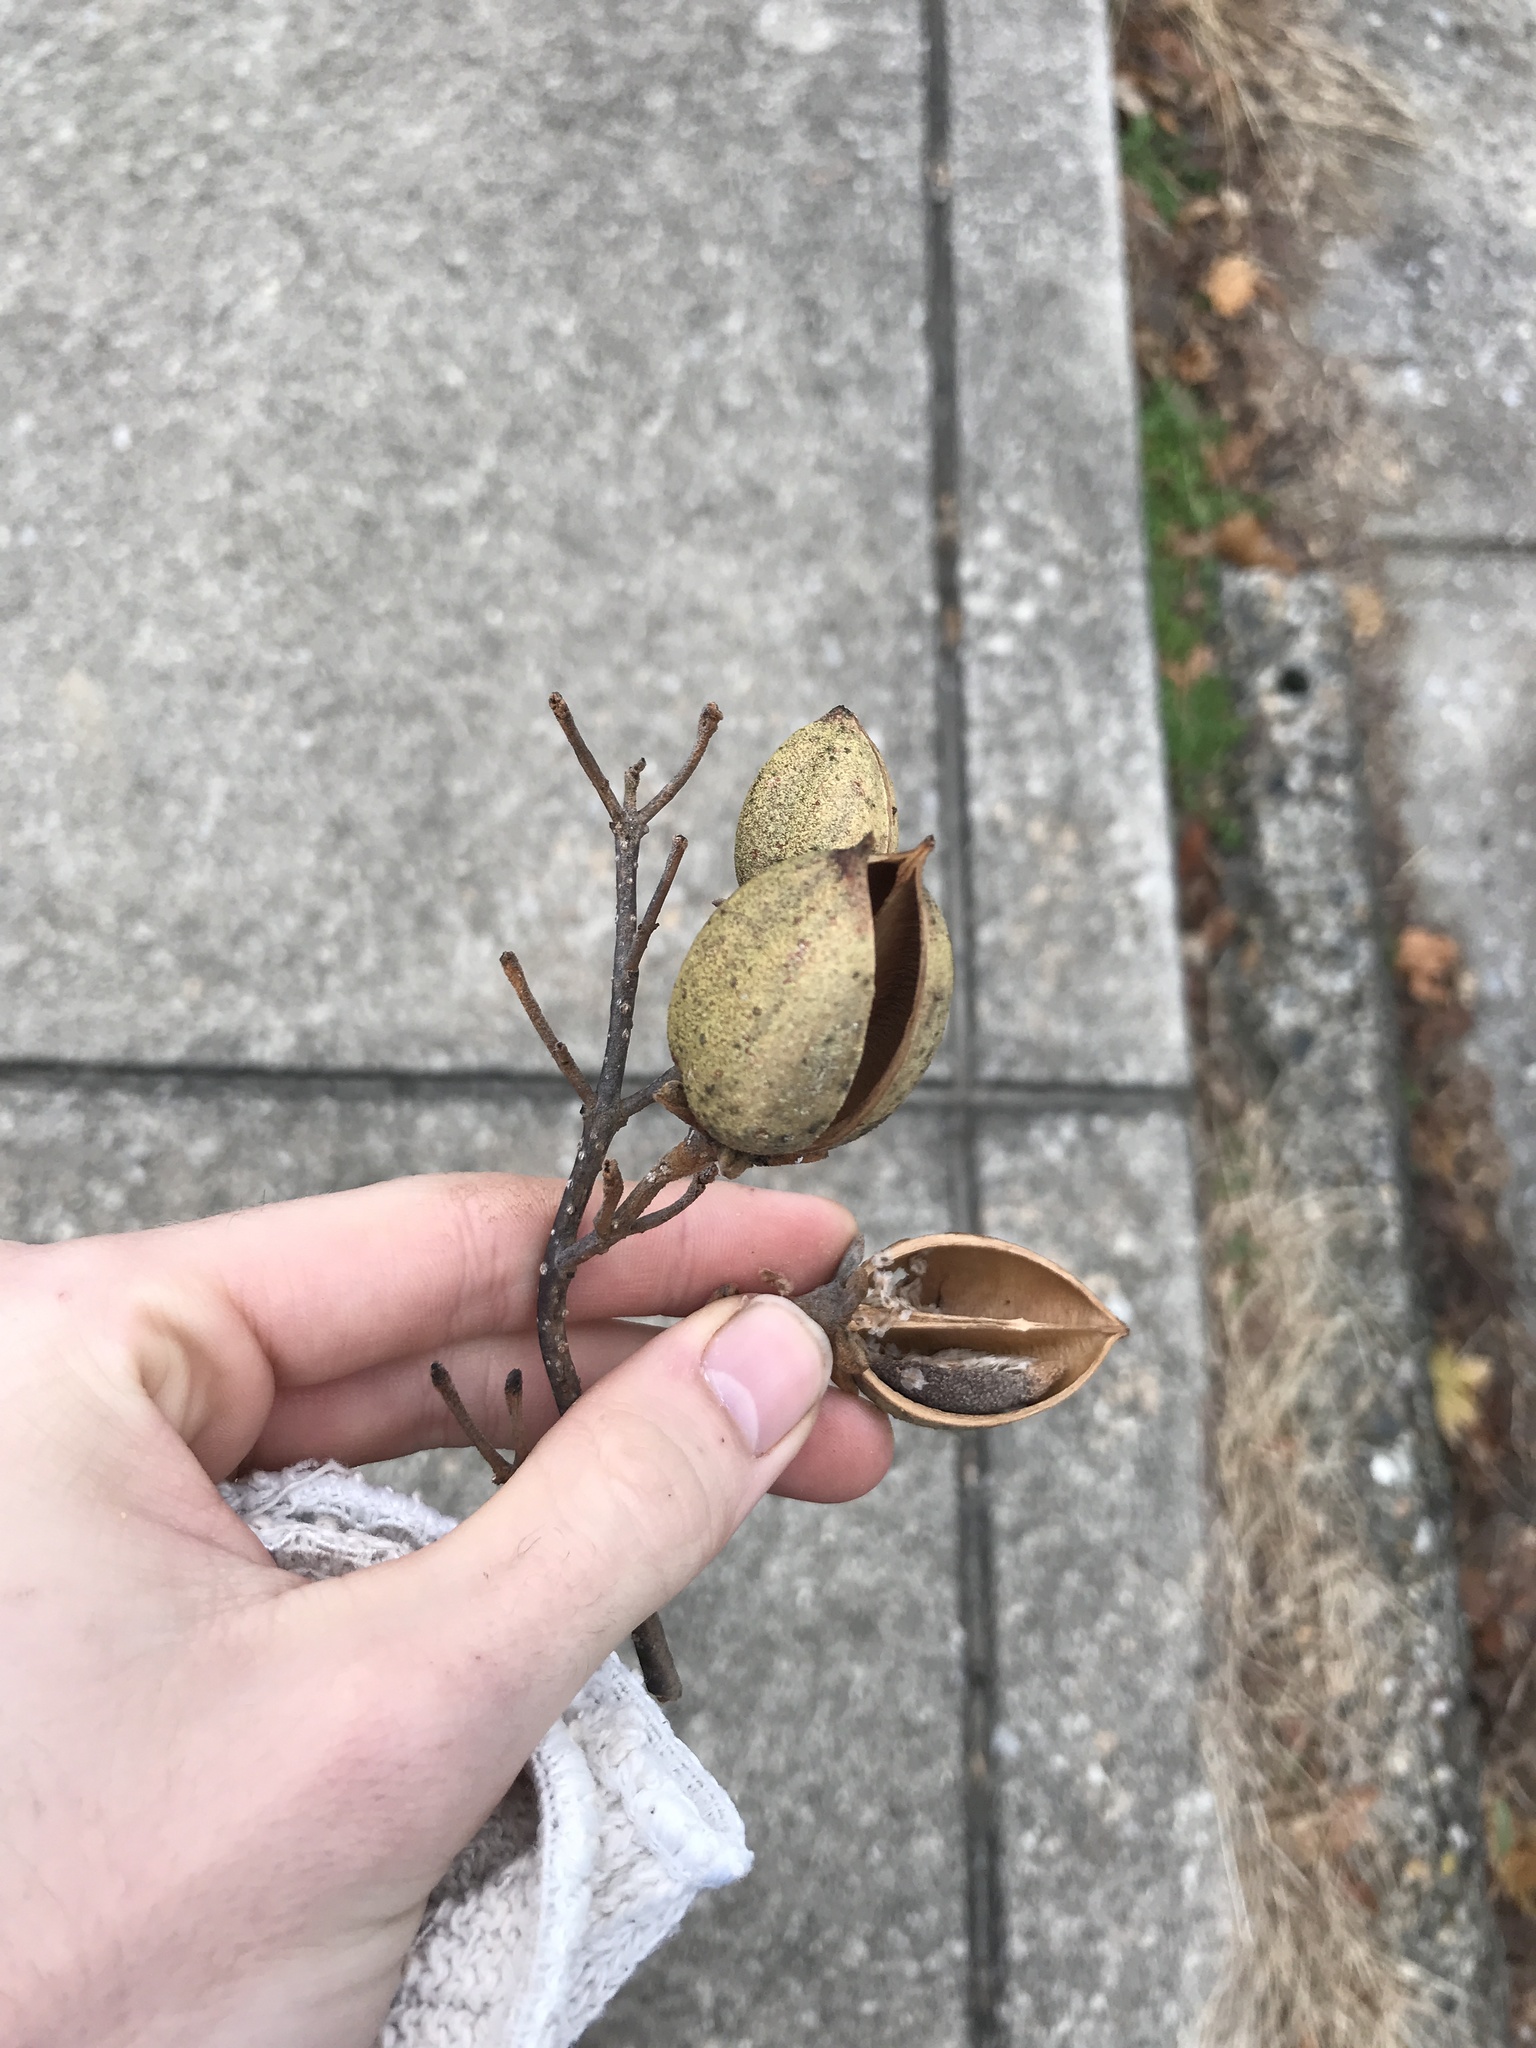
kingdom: Plantae
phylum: Tracheophyta
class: Magnoliopsida
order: Lamiales
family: Paulowniaceae
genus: Paulownia
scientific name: Paulownia tomentosa
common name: Foxglove-tree
